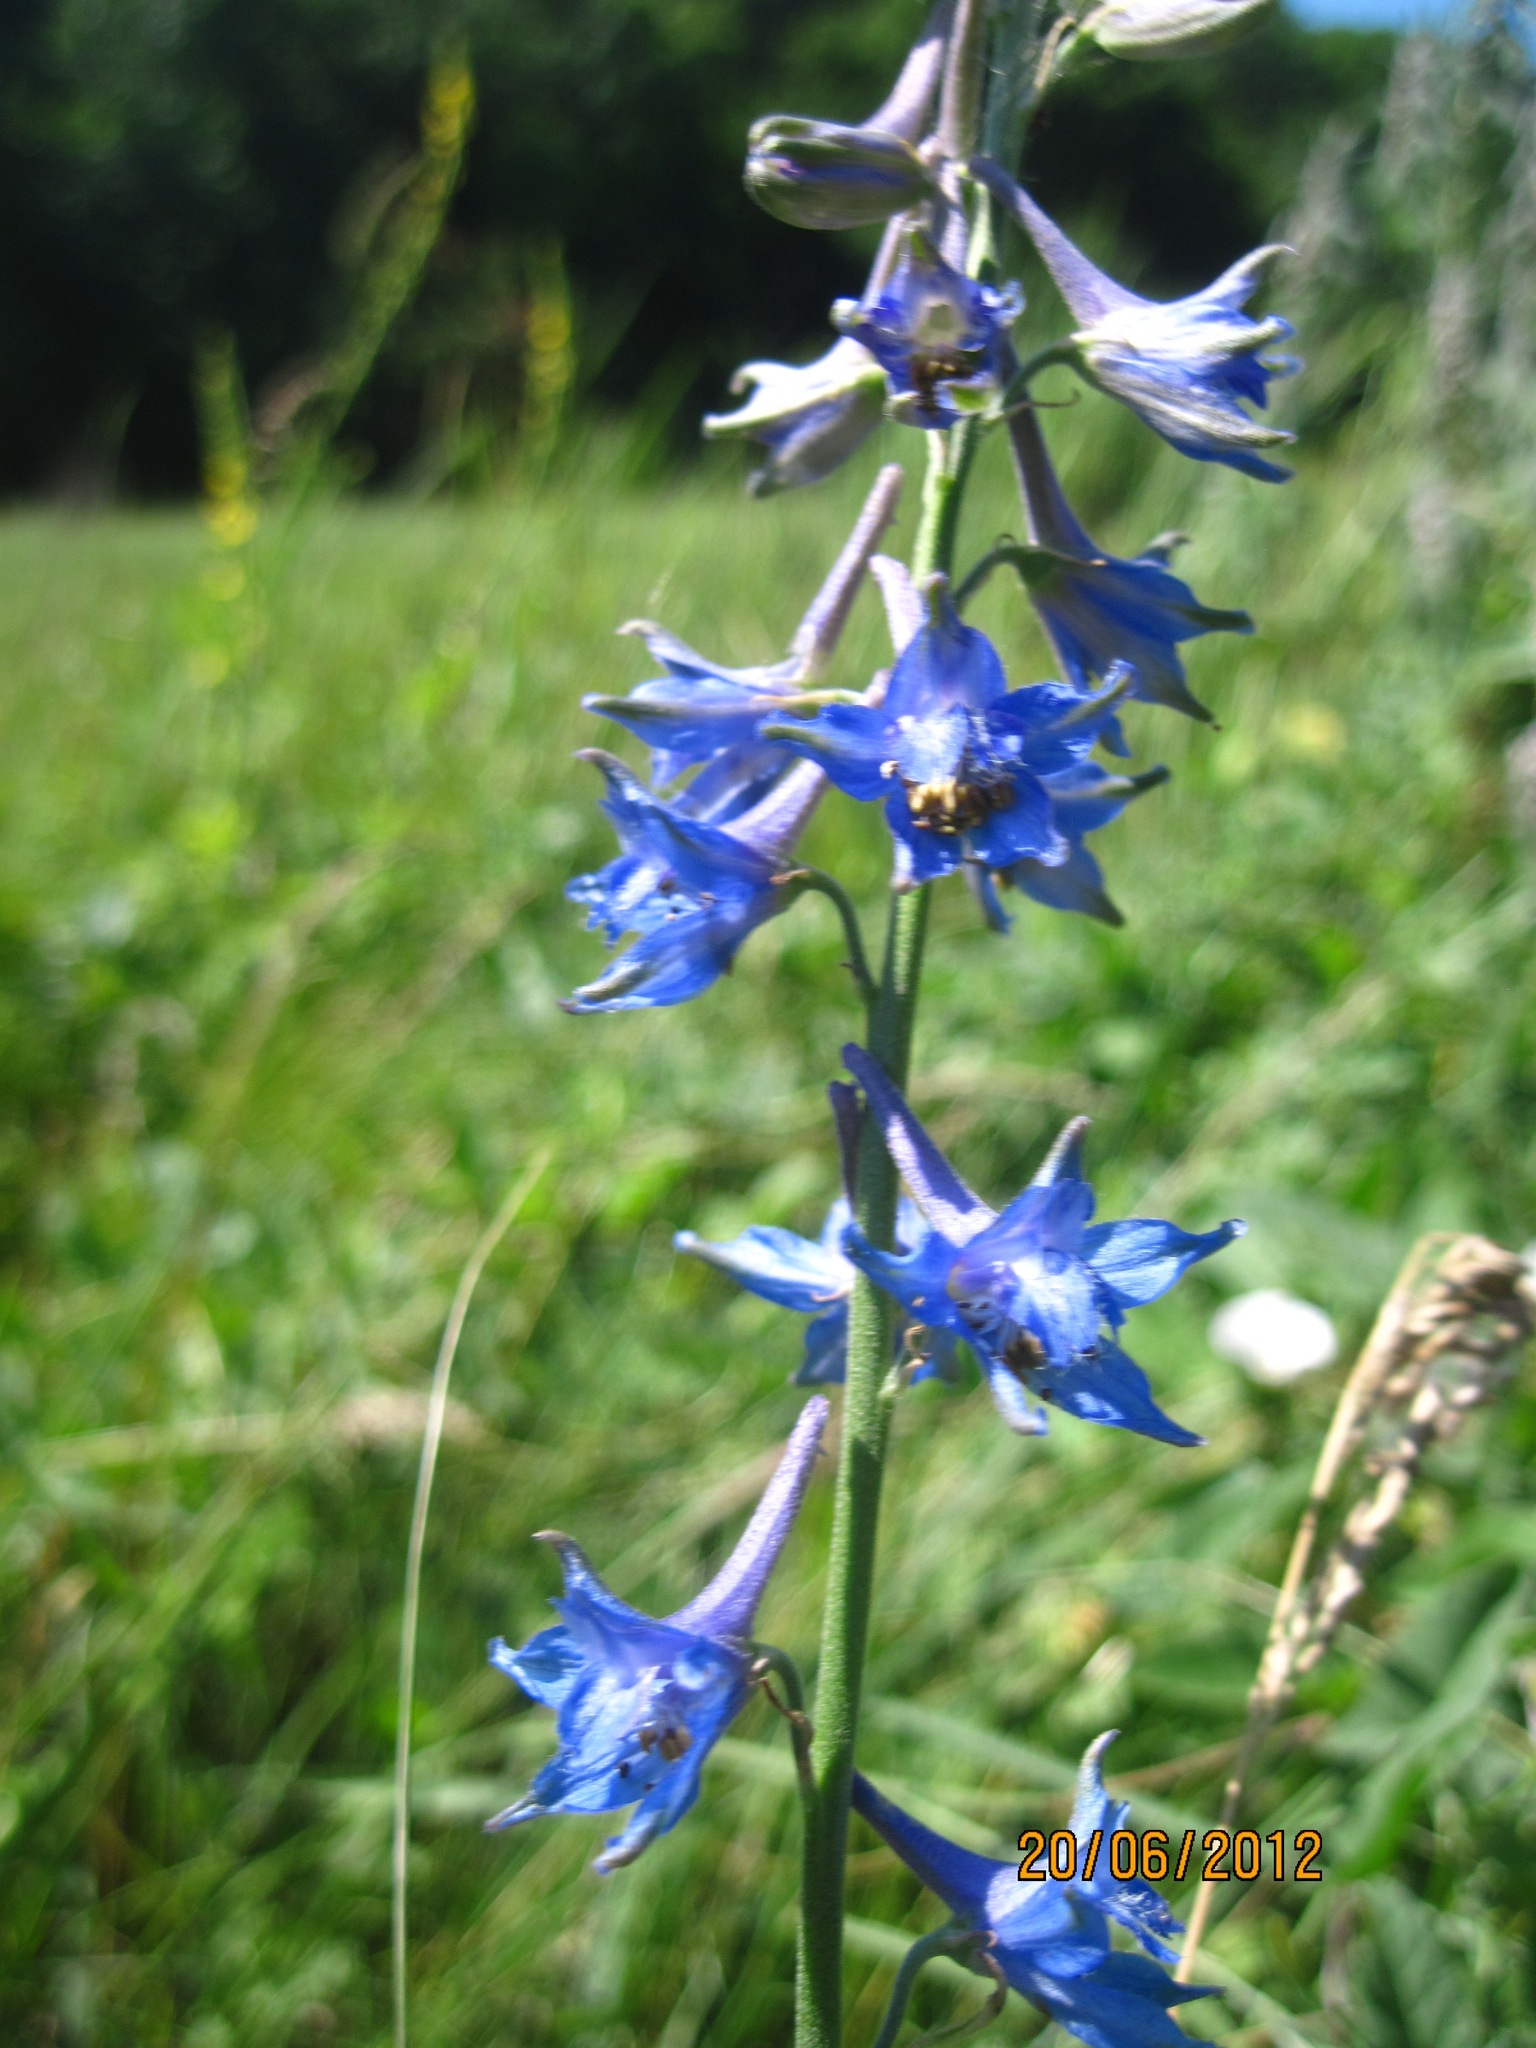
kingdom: Plantae
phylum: Tracheophyta
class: Magnoliopsida
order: Ranunculales
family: Ranunculaceae
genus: Delphinium
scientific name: Delphinium schmalhausenii
